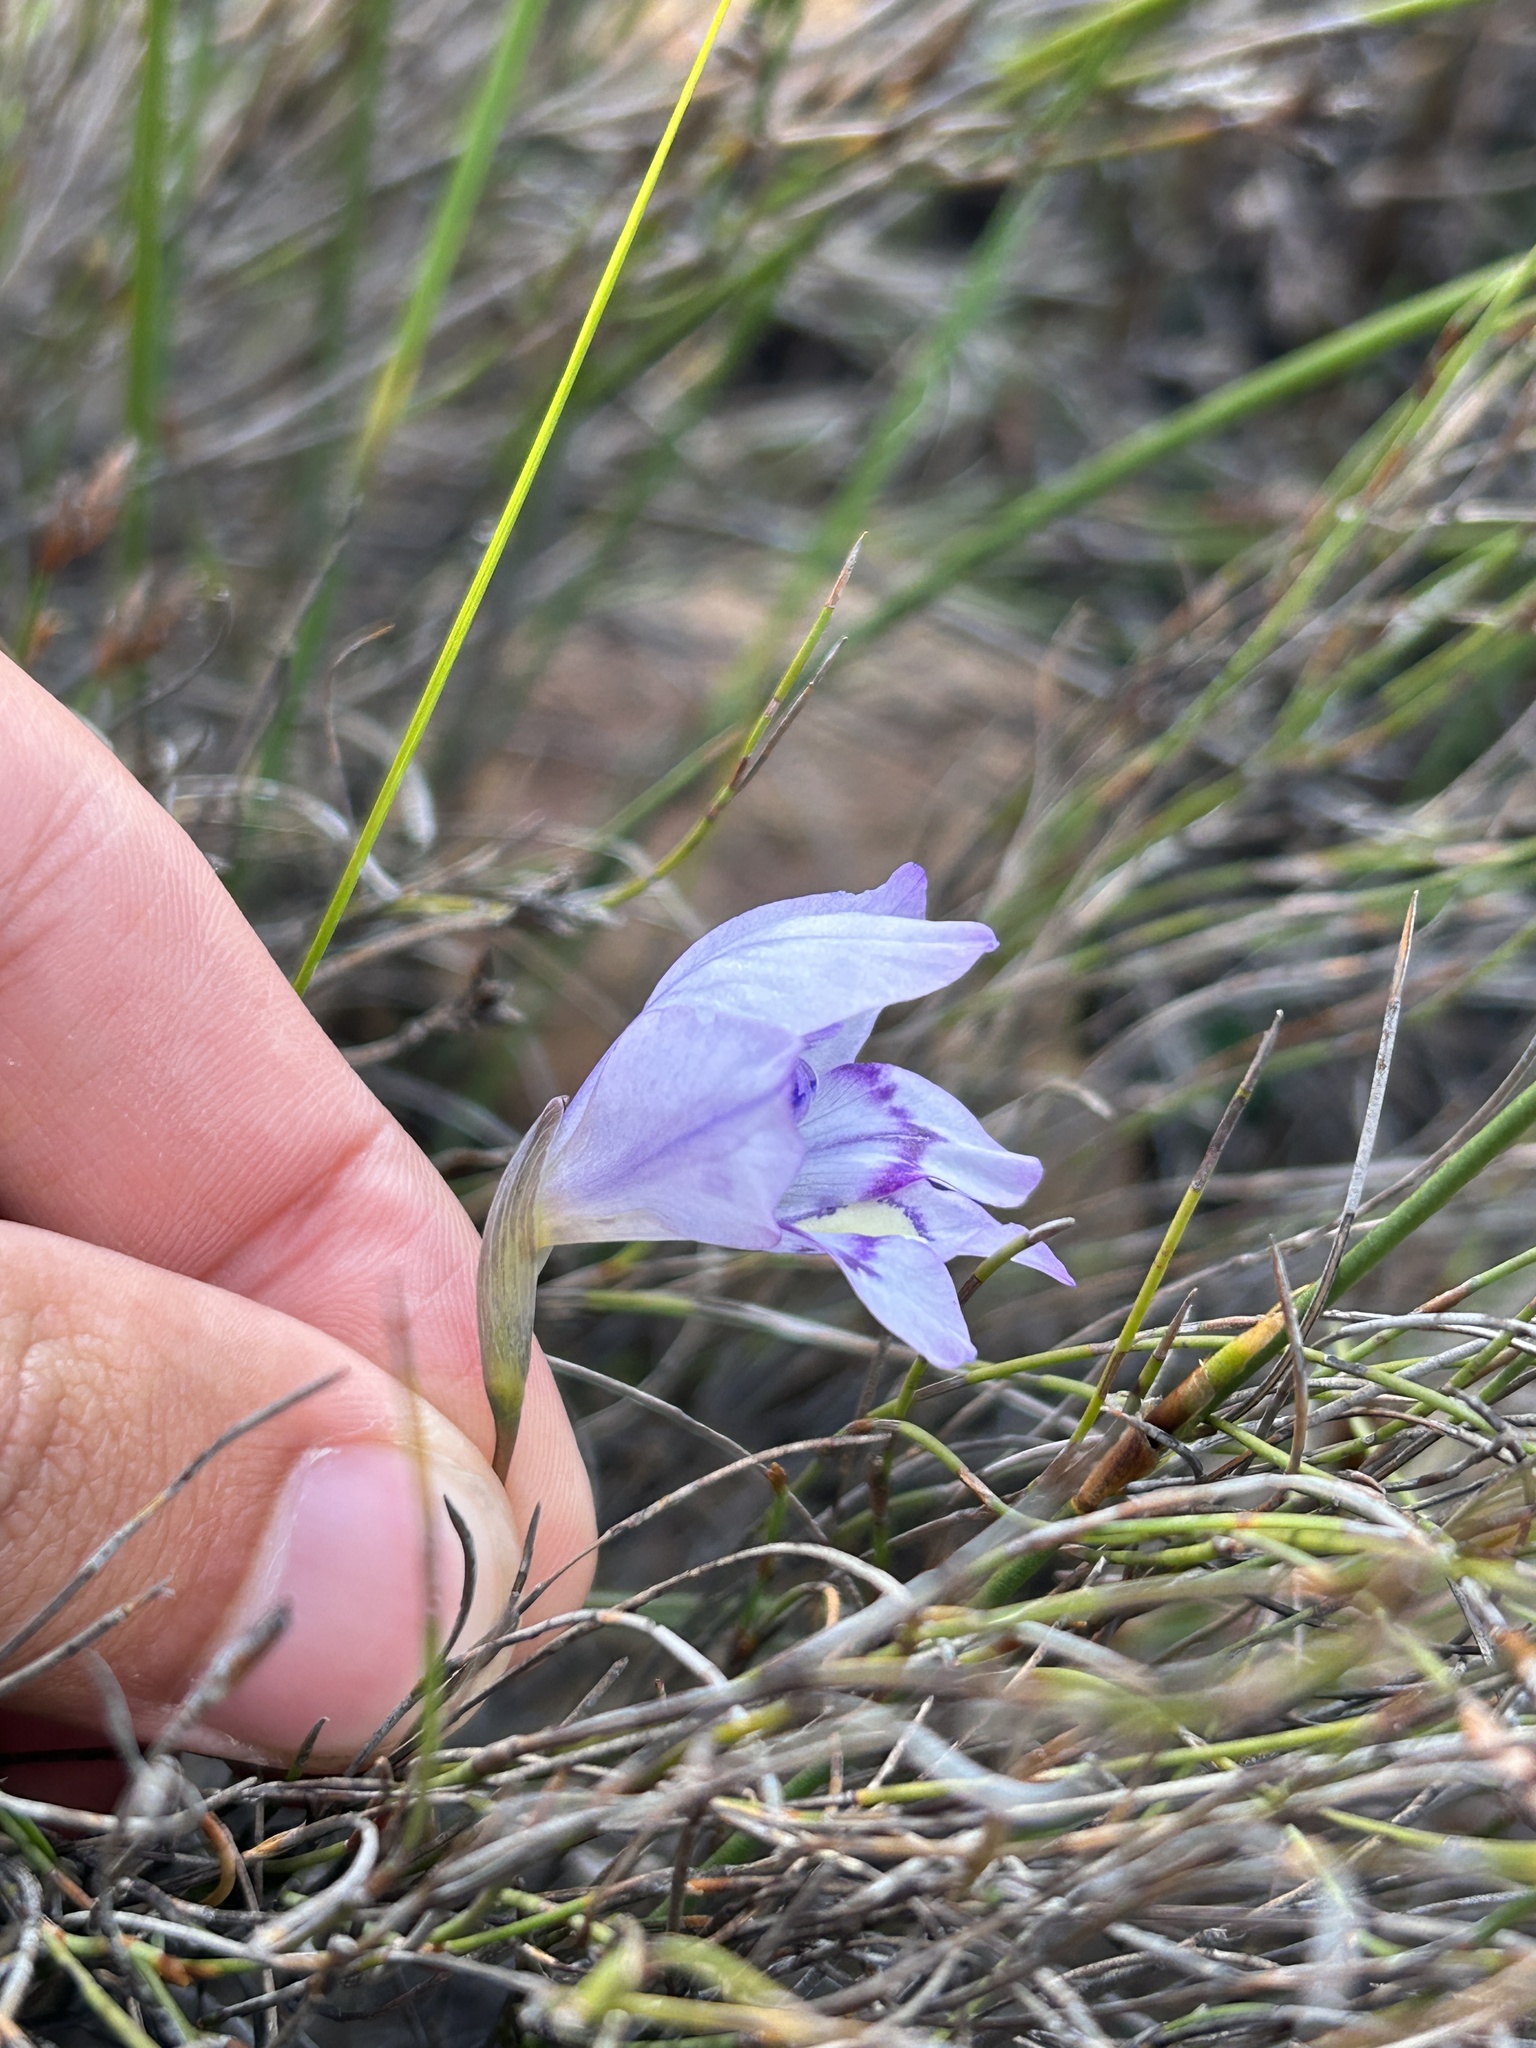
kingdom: Plantae
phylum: Tracheophyta
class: Liliopsida
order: Asparagales
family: Iridaceae
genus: Gladiolus
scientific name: Gladiolus inflatus
